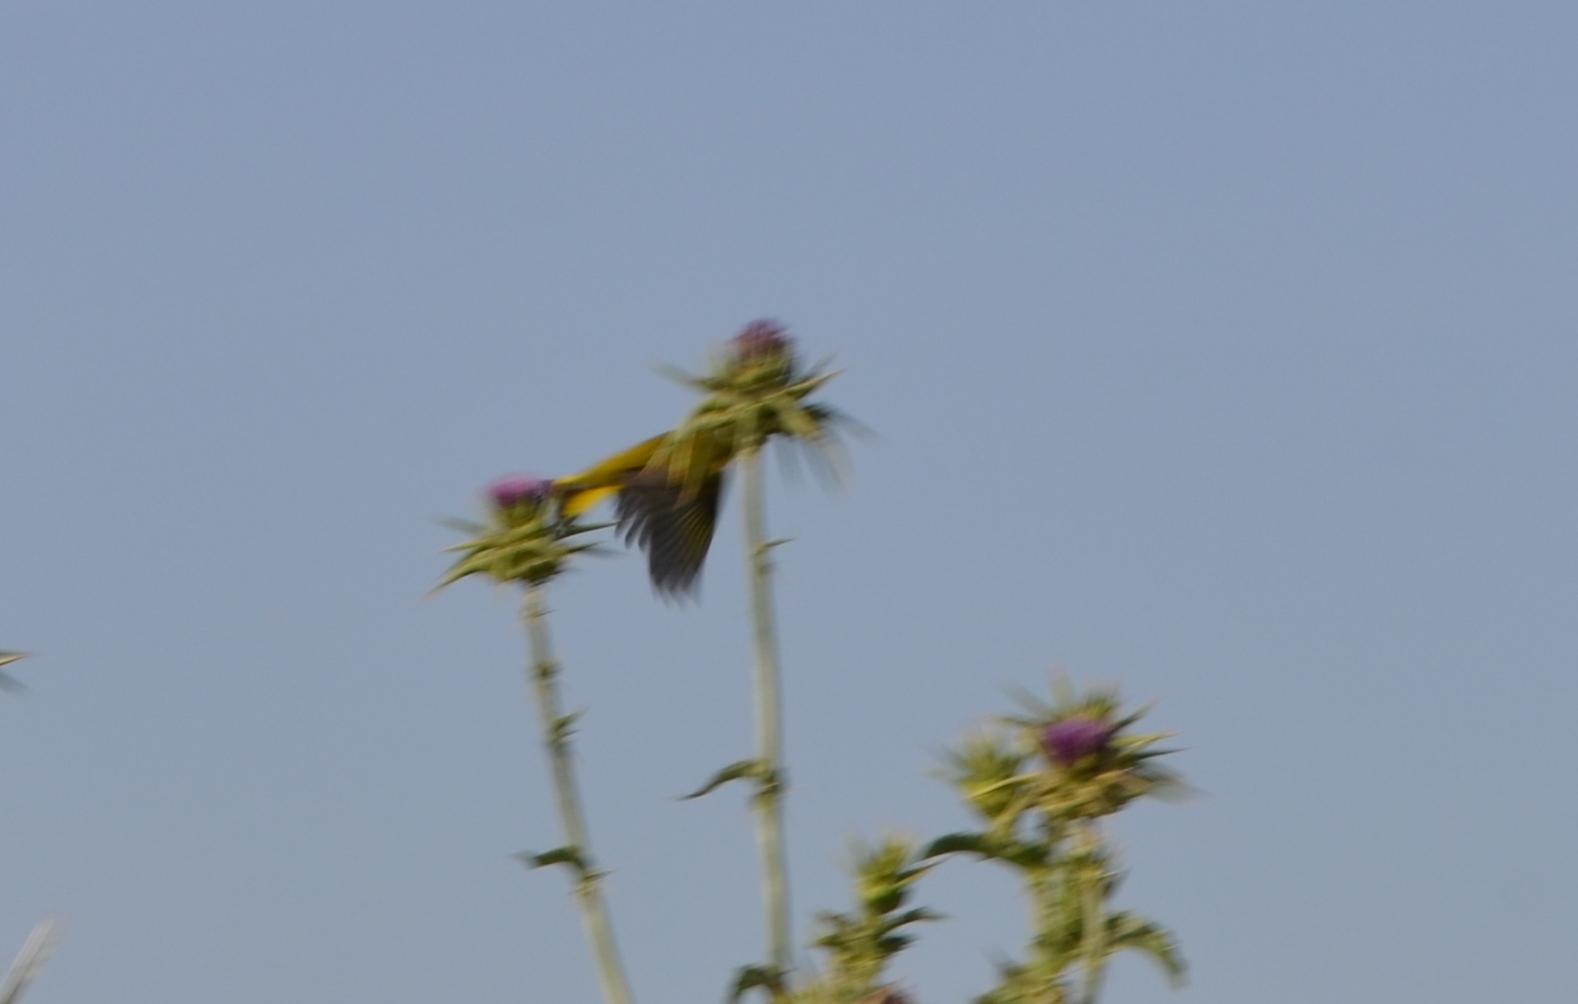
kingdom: Plantae
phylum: Tracheophyta
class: Liliopsida
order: Poales
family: Poaceae
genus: Chloris
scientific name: Chloris chloris
